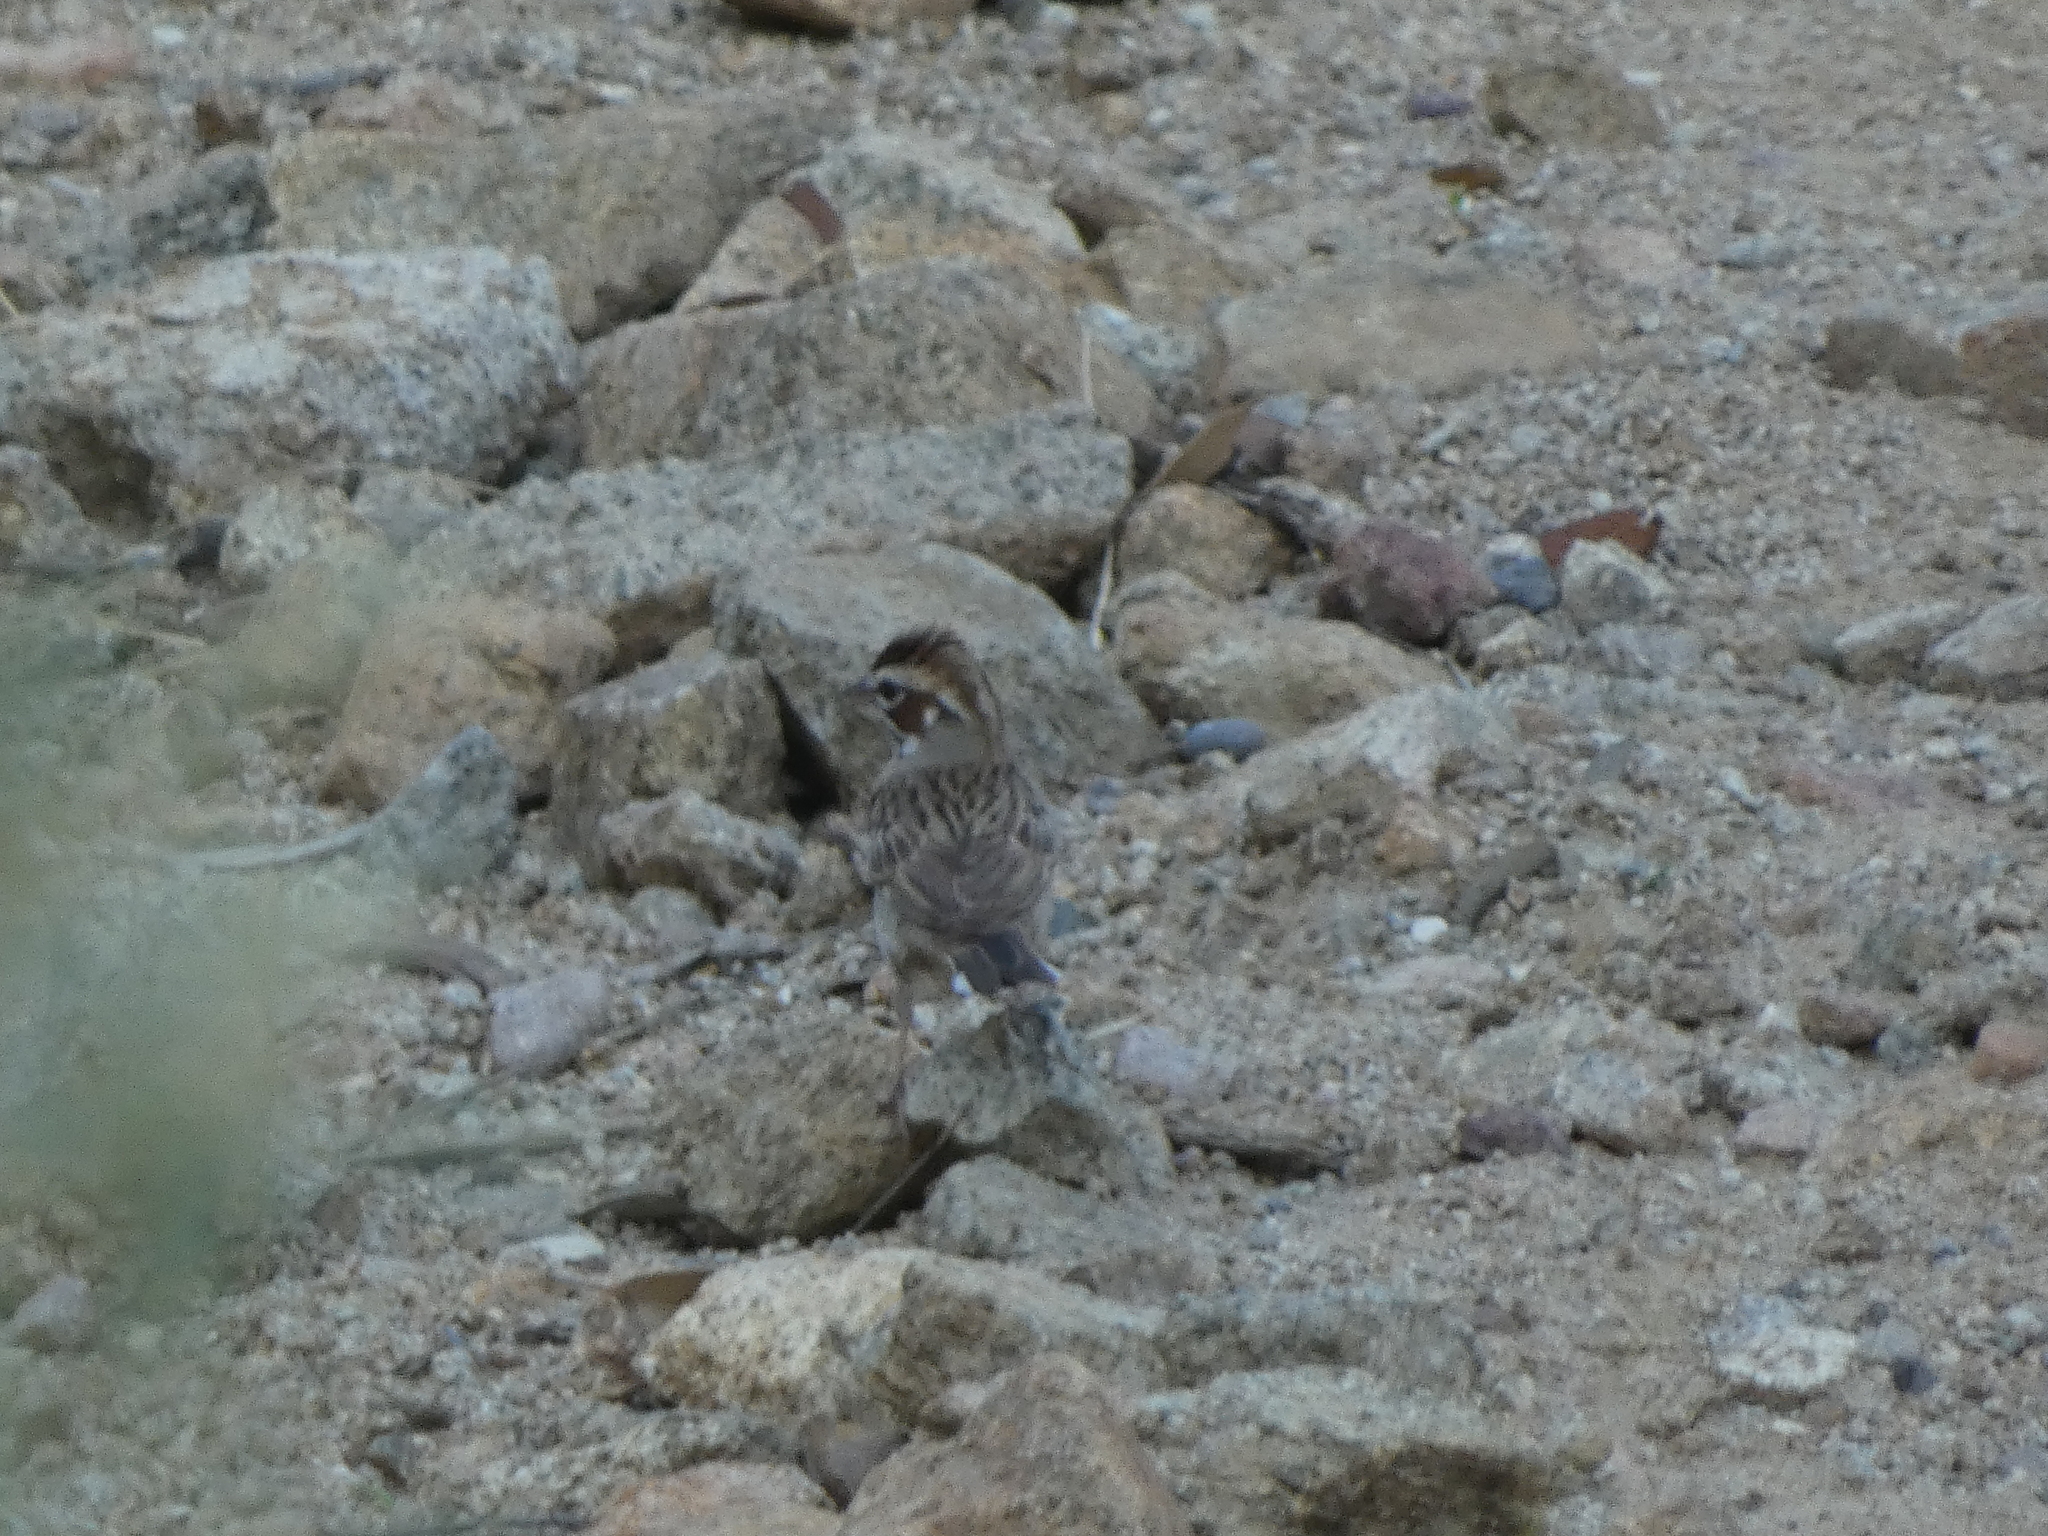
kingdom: Animalia
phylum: Chordata
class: Aves
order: Passeriformes
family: Passerellidae
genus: Chondestes
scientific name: Chondestes grammacus
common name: Lark sparrow
